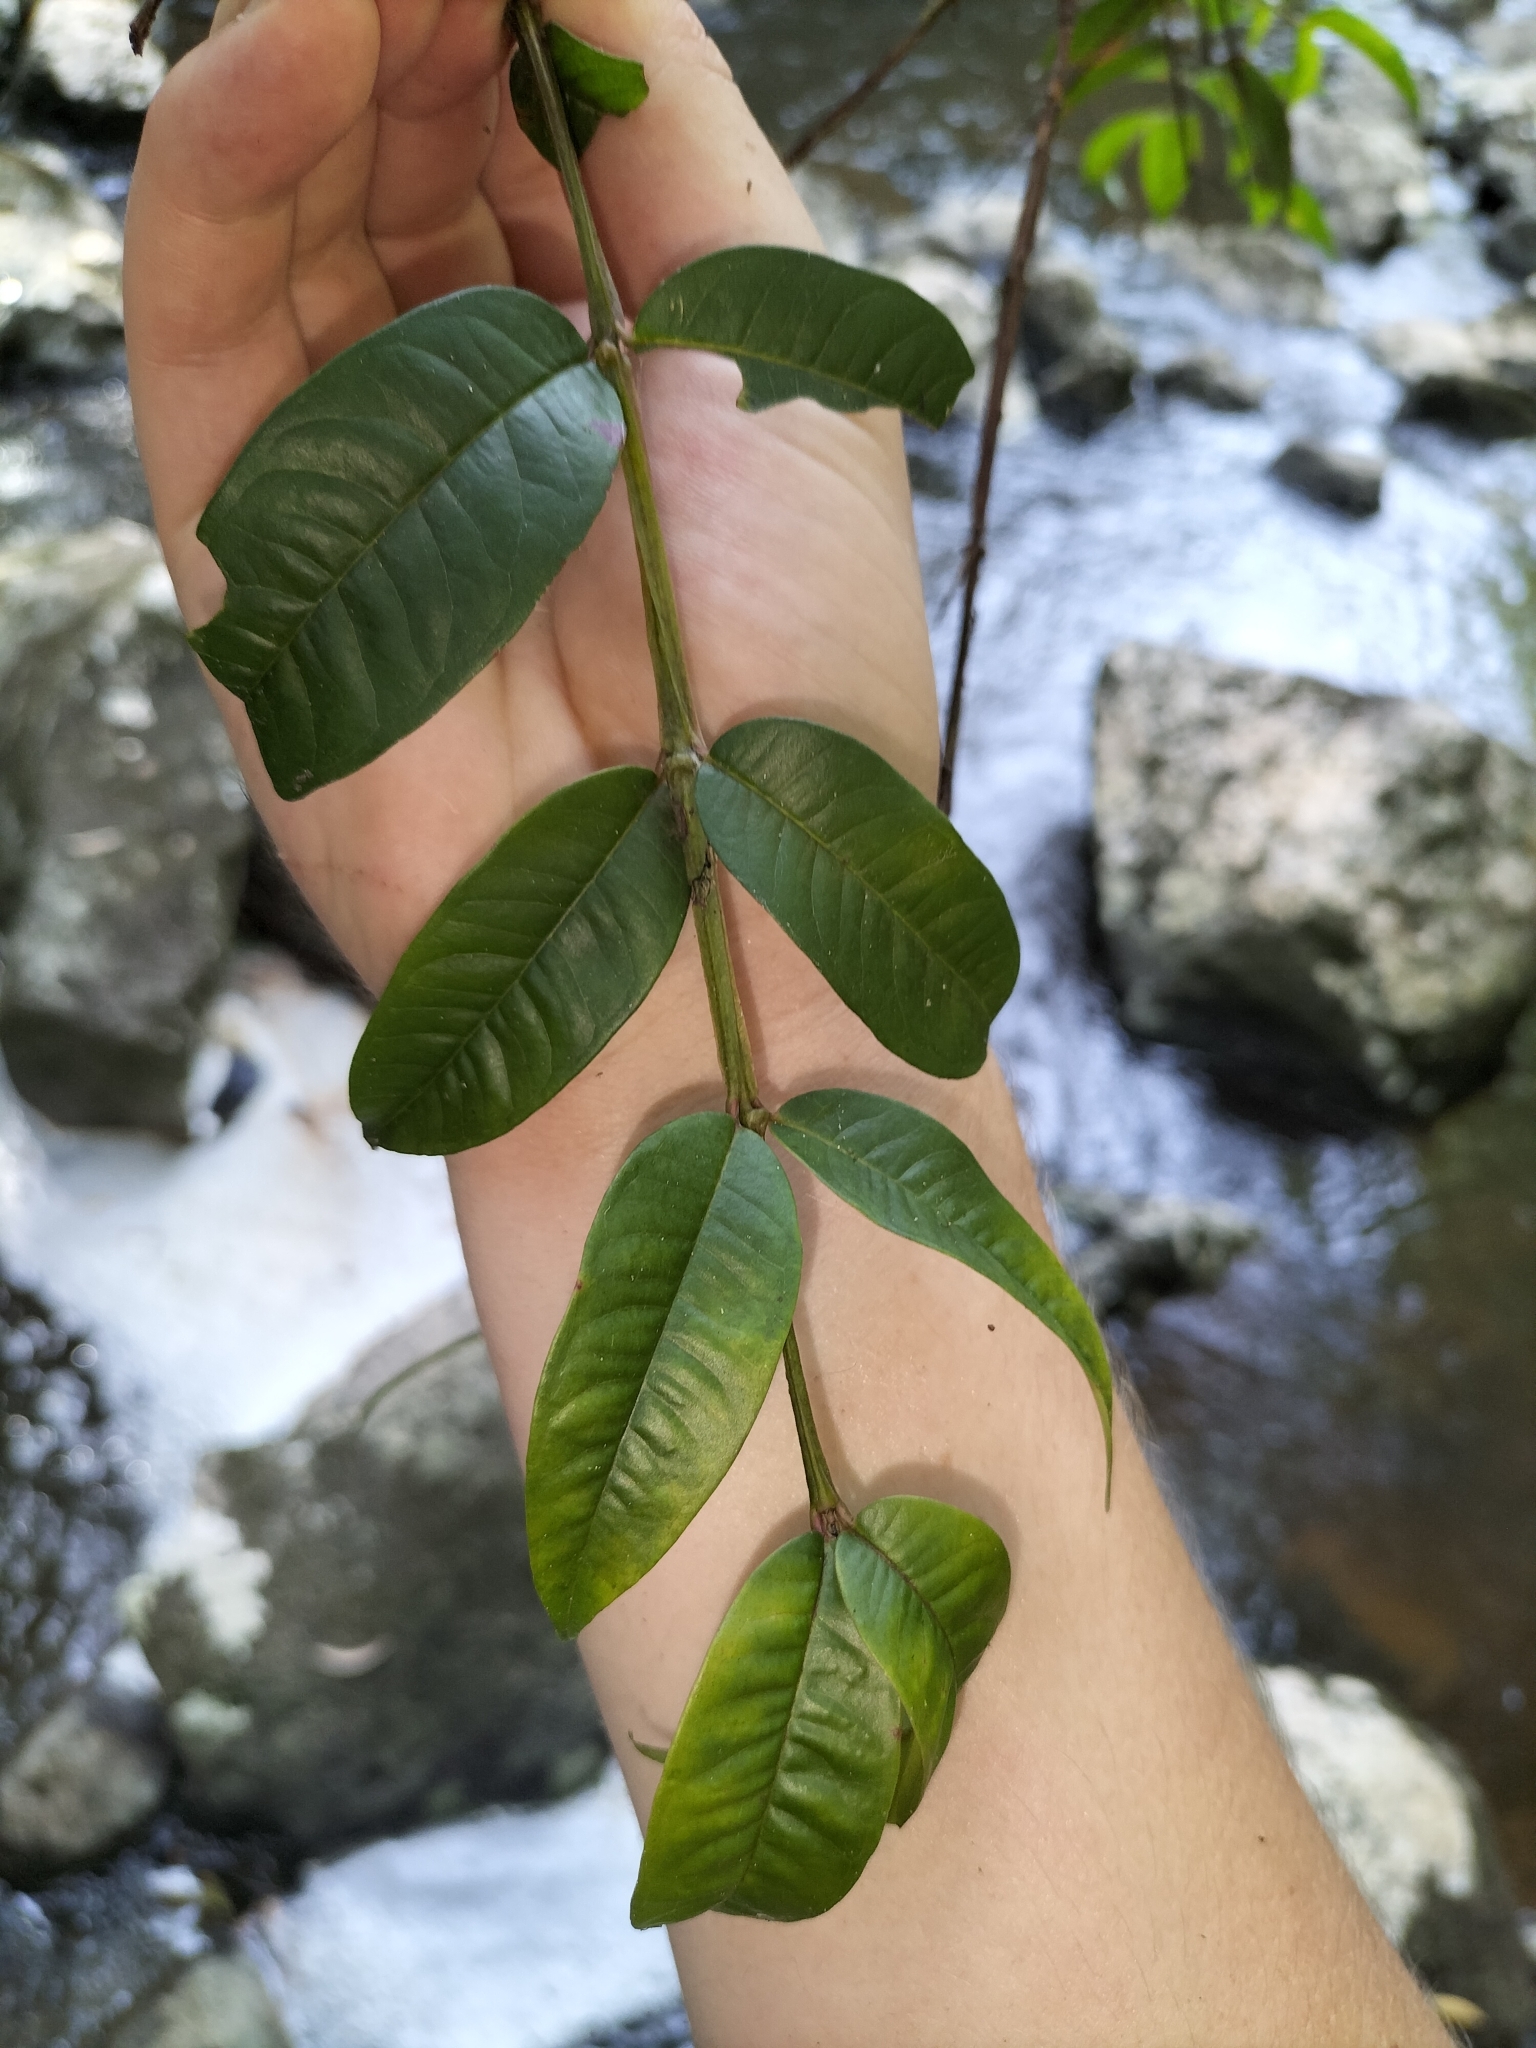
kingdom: Plantae
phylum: Tracheophyta
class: Magnoliopsida
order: Myrtales
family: Myrtaceae
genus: Syzygium
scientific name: Syzygium alatoramulum
